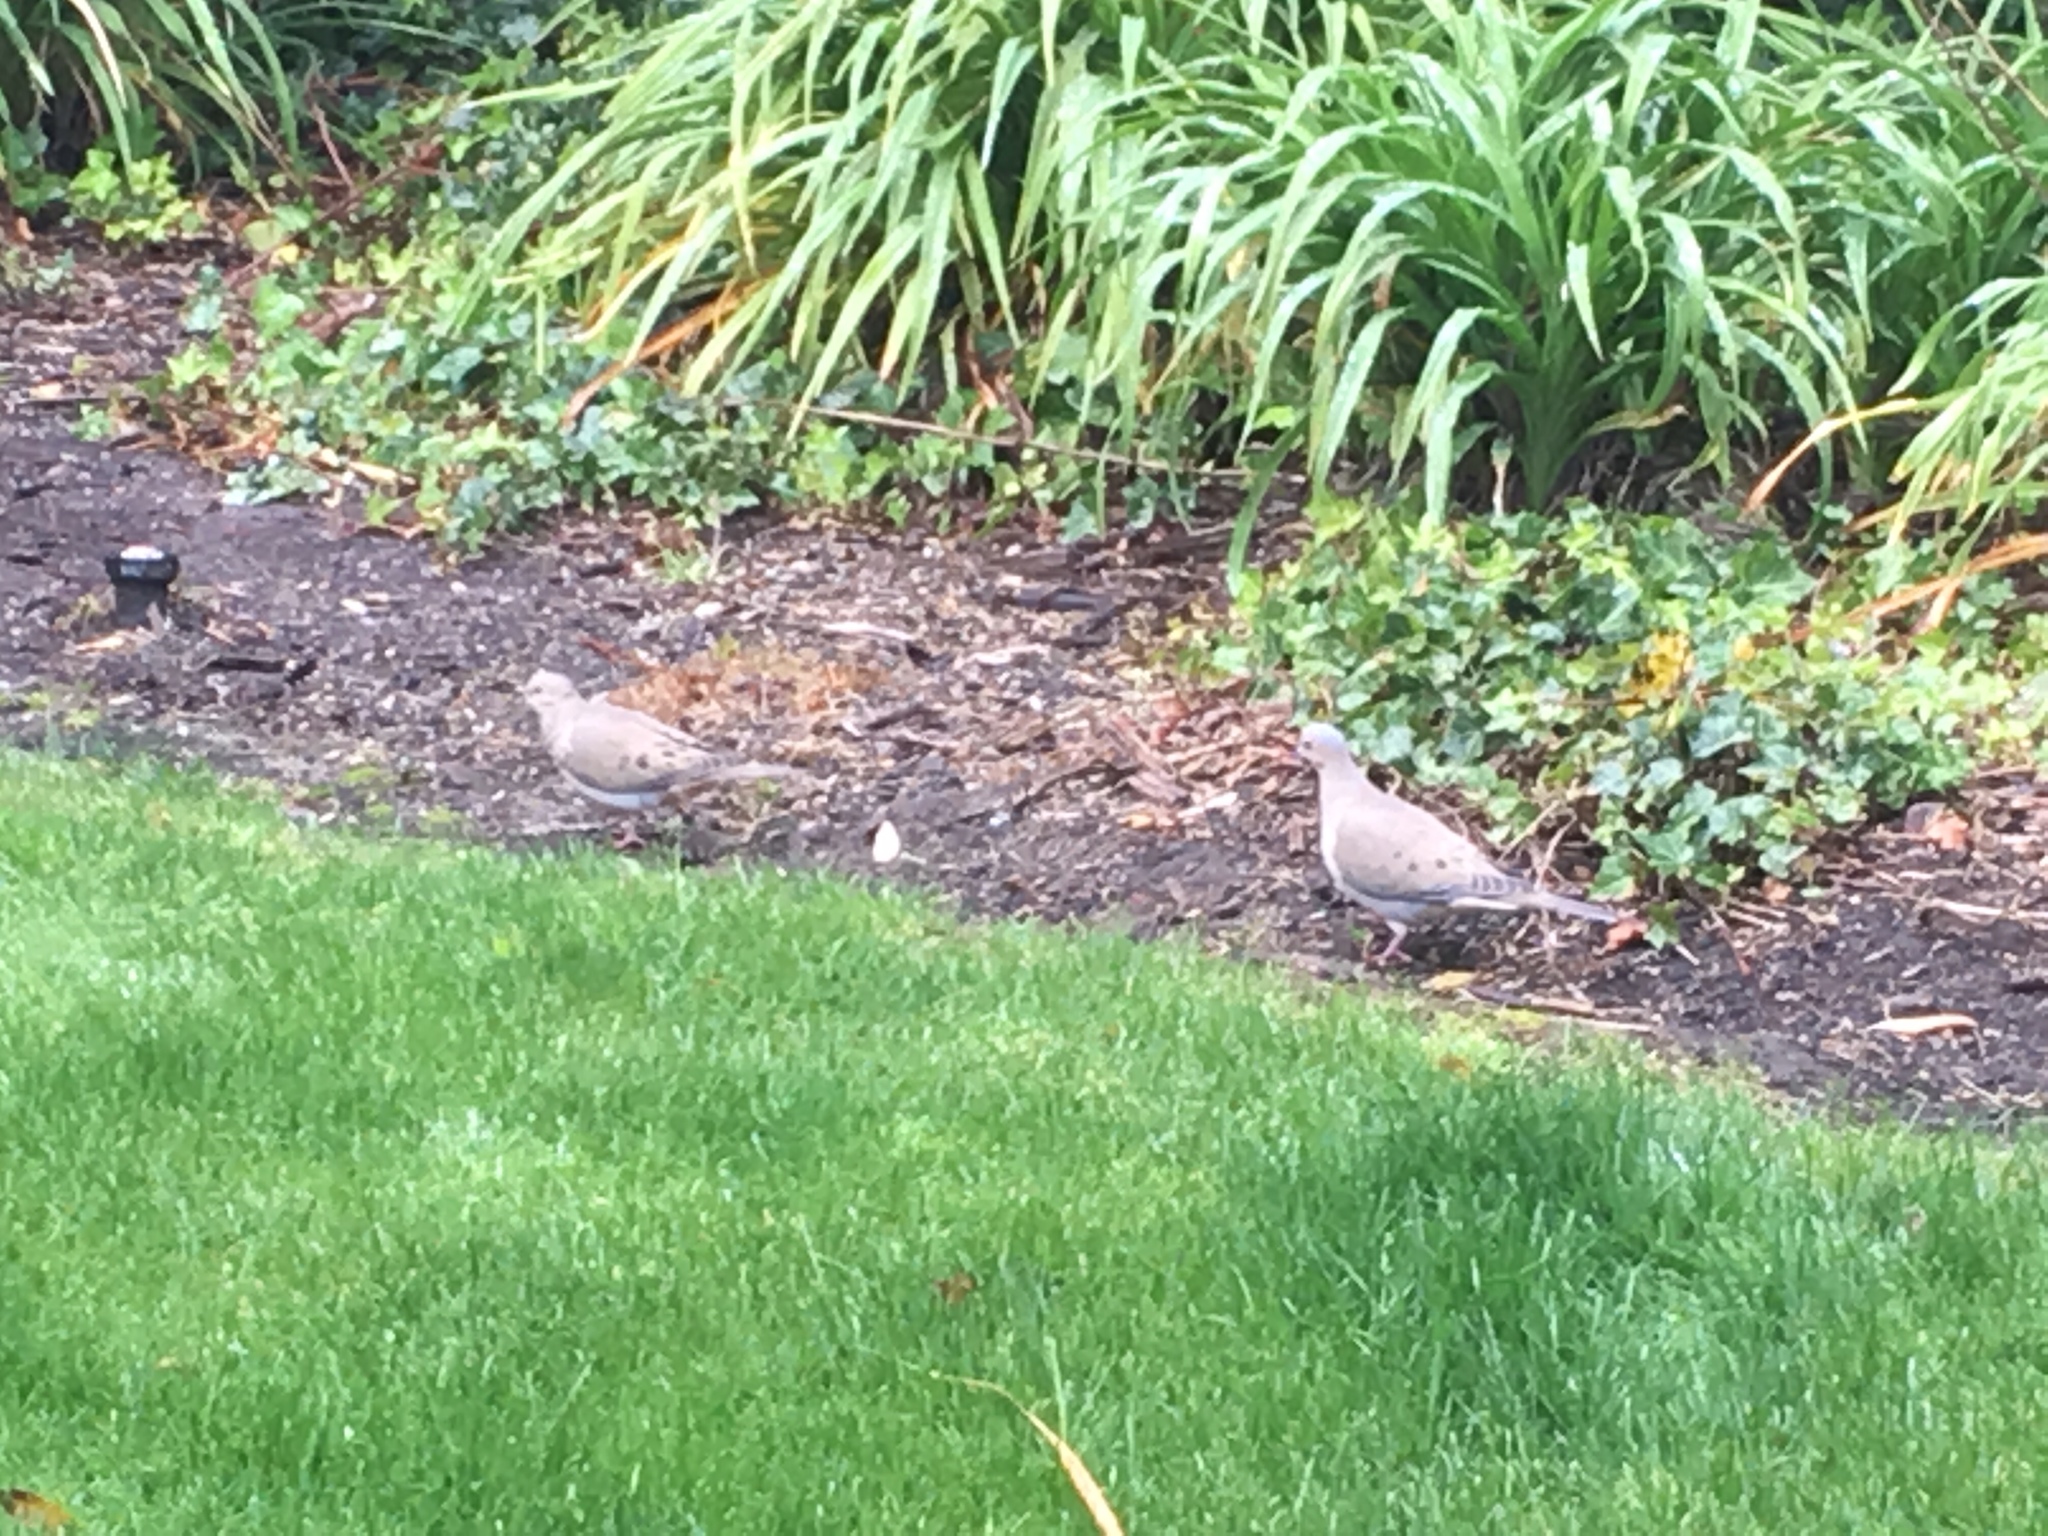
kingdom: Animalia
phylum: Chordata
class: Aves
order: Columbiformes
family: Columbidae
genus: Zenaida
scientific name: Zenaida macroura
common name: Mourning dove
